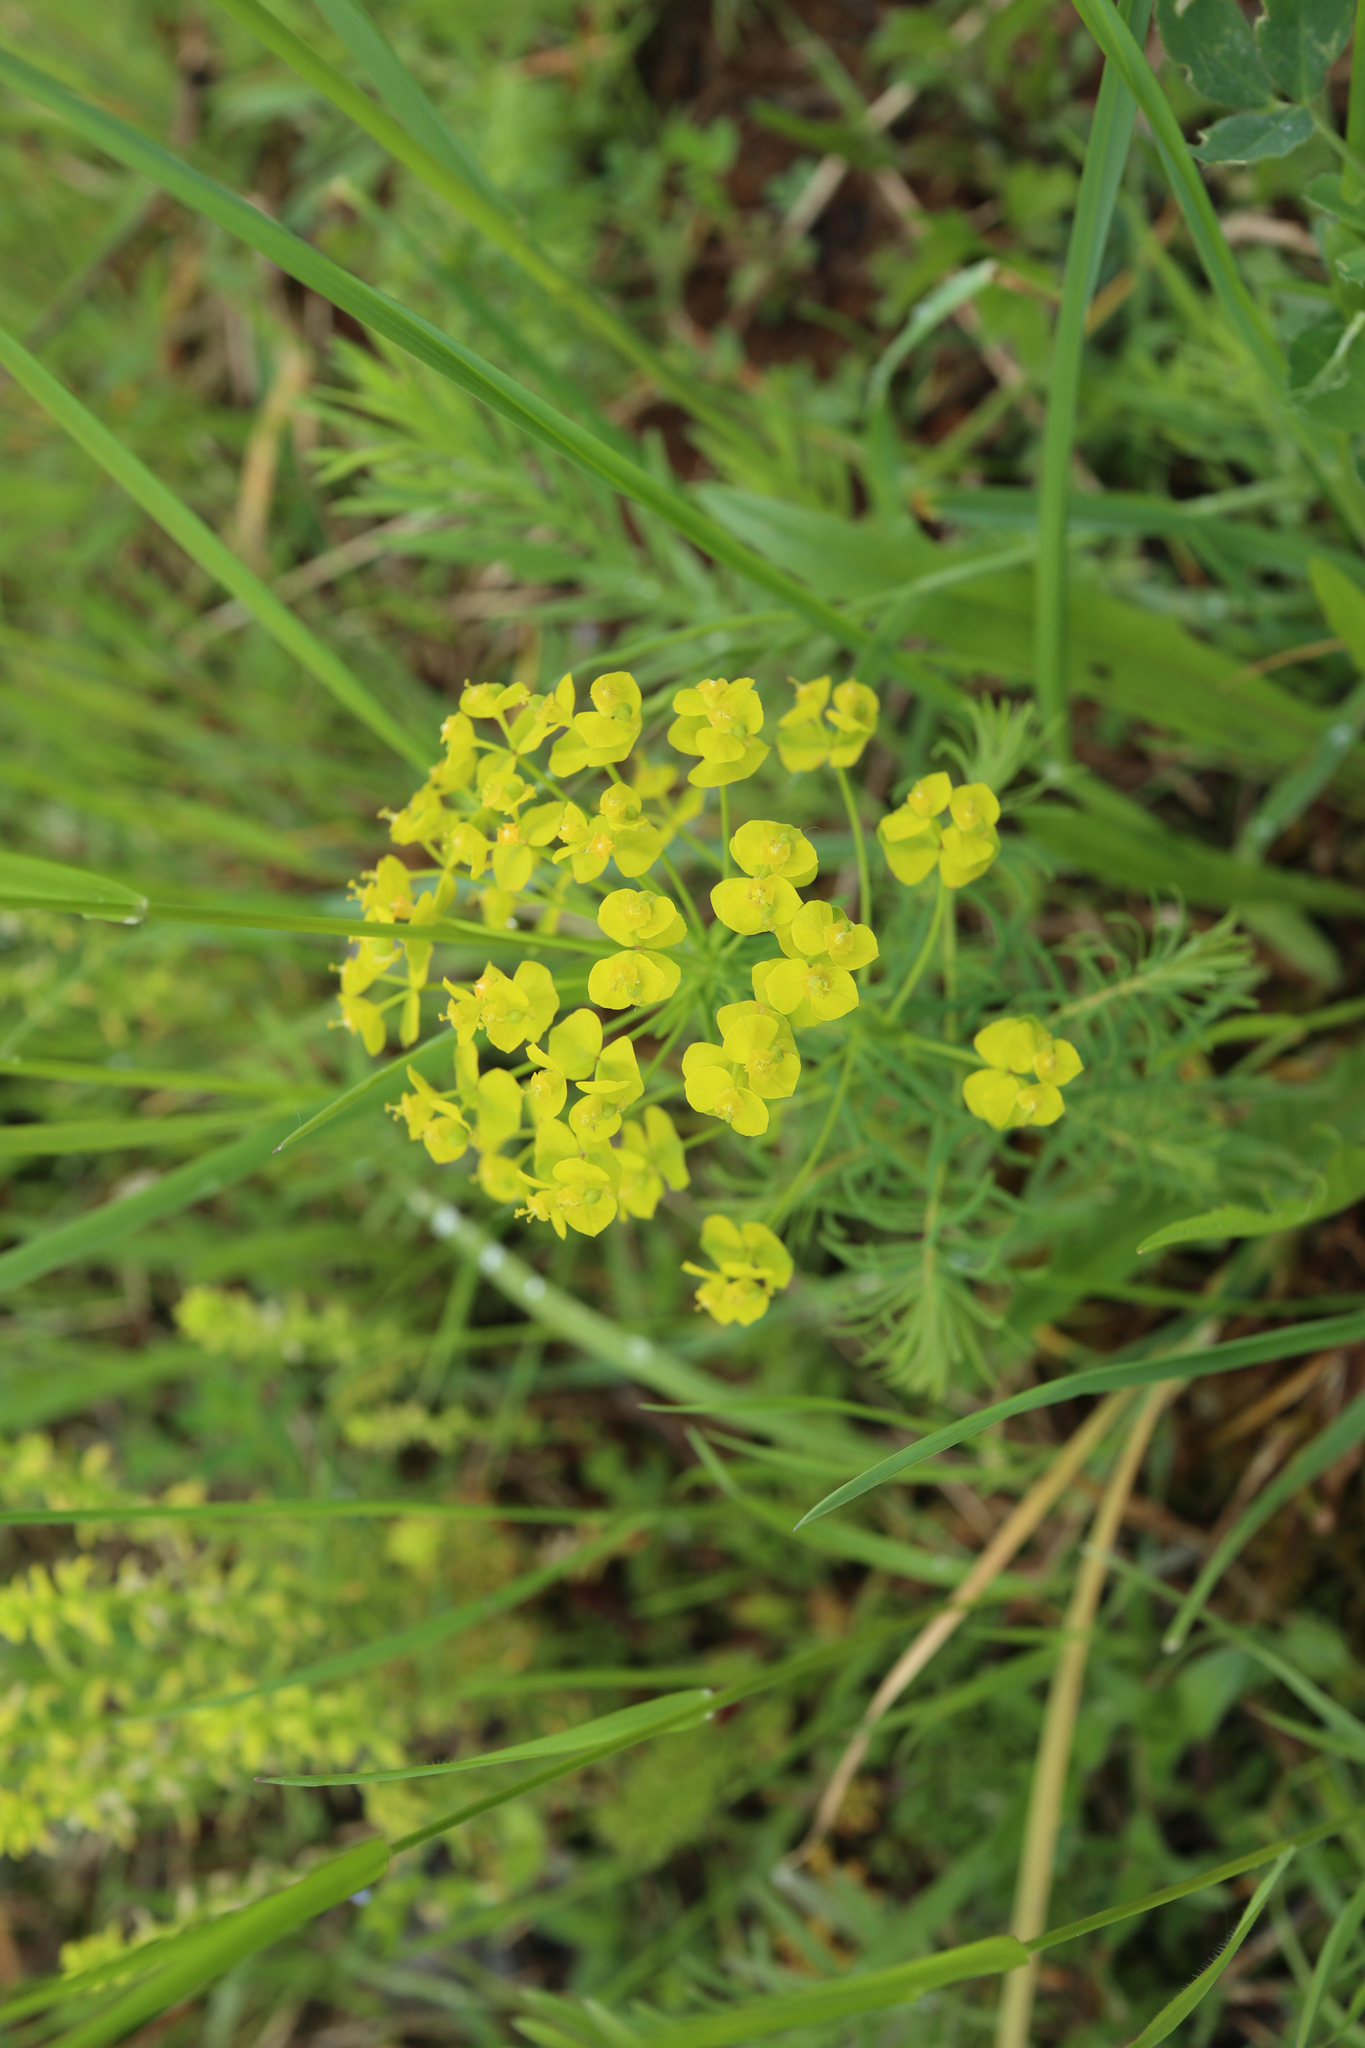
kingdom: Plantae
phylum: Tracheophyta
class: Magnoliopsida
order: Malpighiales
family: Euphorbiaceae
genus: Euphorbia
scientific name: Euphorbia cyparissias
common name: Cypress spurge
